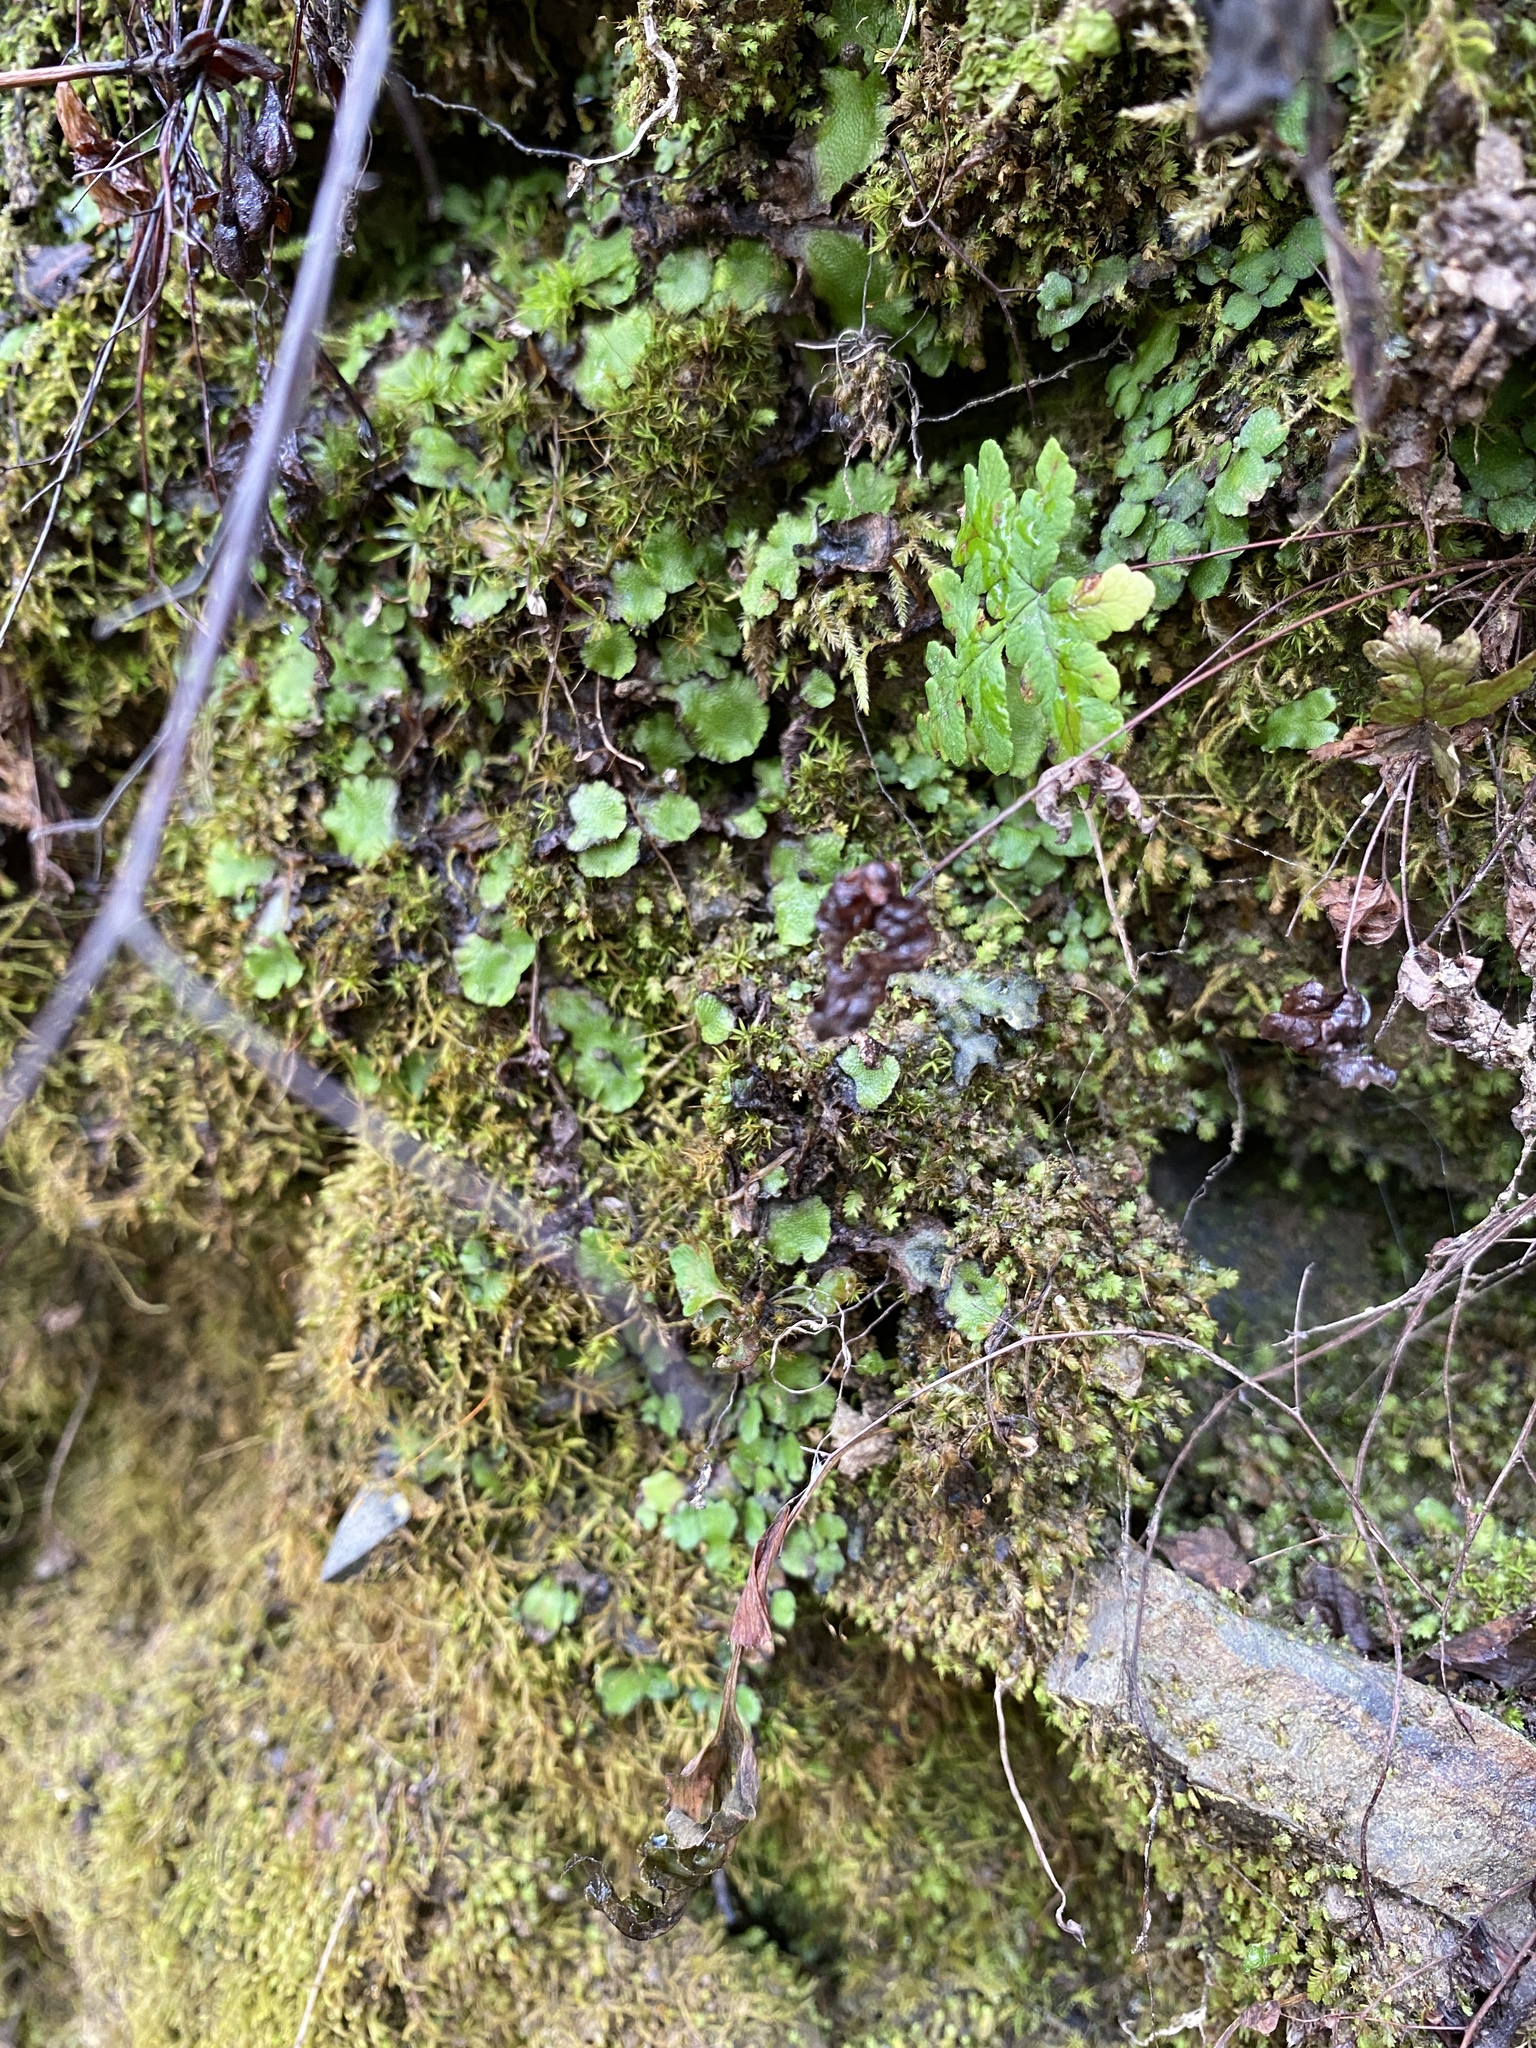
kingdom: Plantae
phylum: Tracheophyta
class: Polypodiopsida
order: Polypodiales
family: Pteridaceae
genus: Pentagramma
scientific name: Pentagramma triangularis
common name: Gold fern
